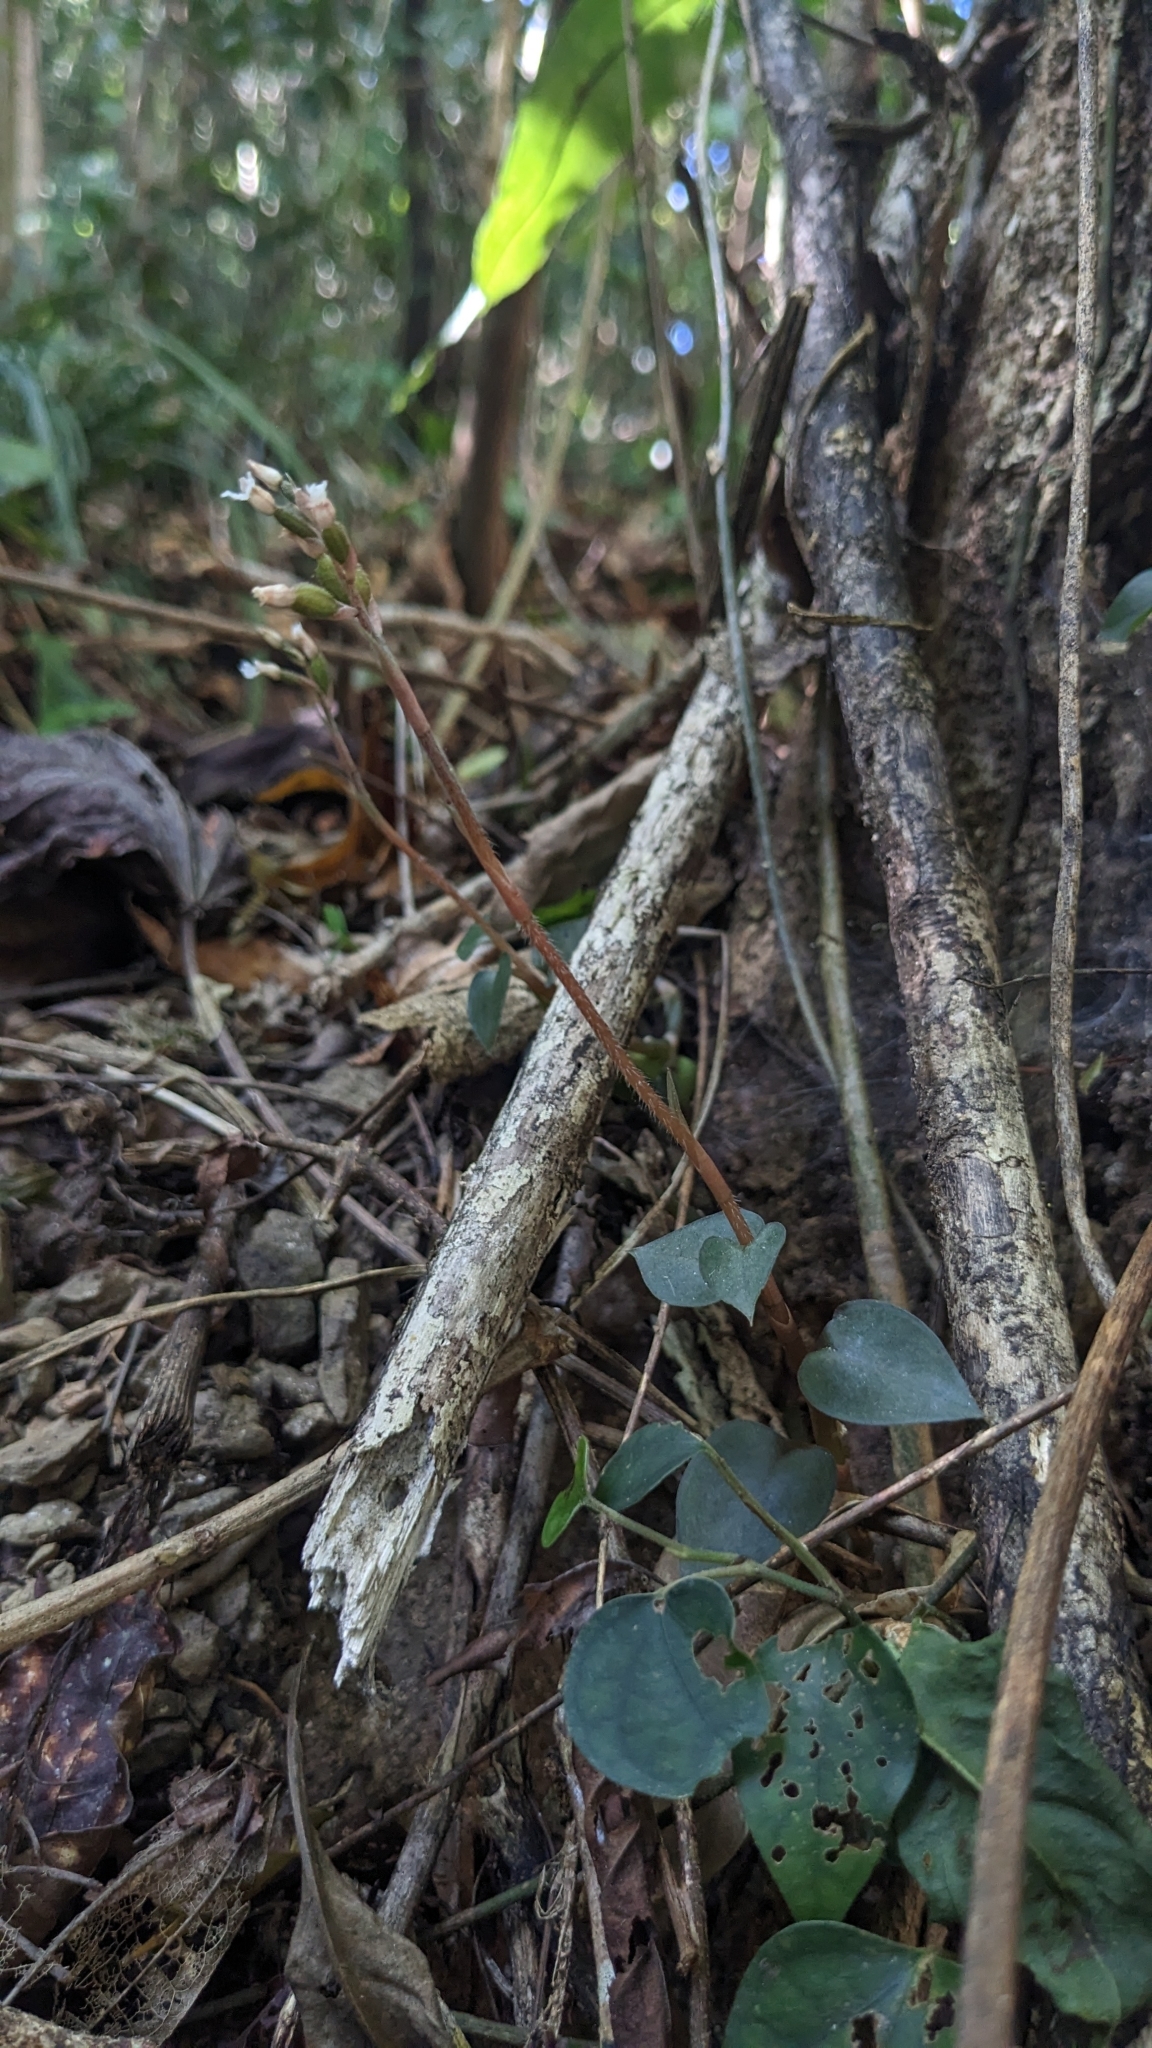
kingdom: Plantae
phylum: Tracheophyta
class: Liliopsida
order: Asparagales
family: Orchidaceae
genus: Cheirostylis
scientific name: Cheirostylis liukiuensis
